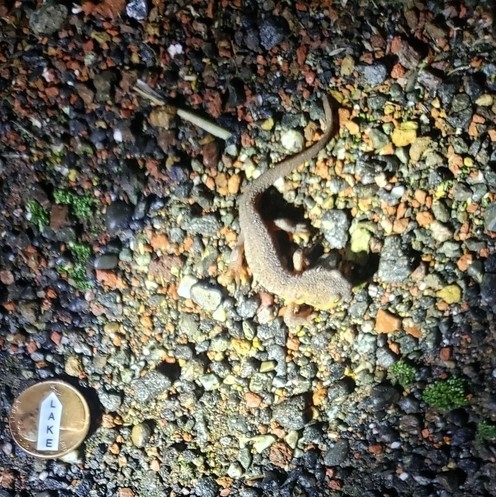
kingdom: Animalia
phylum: Chordata
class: Amphibia
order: Caudata
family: Salamandridae
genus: Taricha
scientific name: Taricha torosa
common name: California newt
